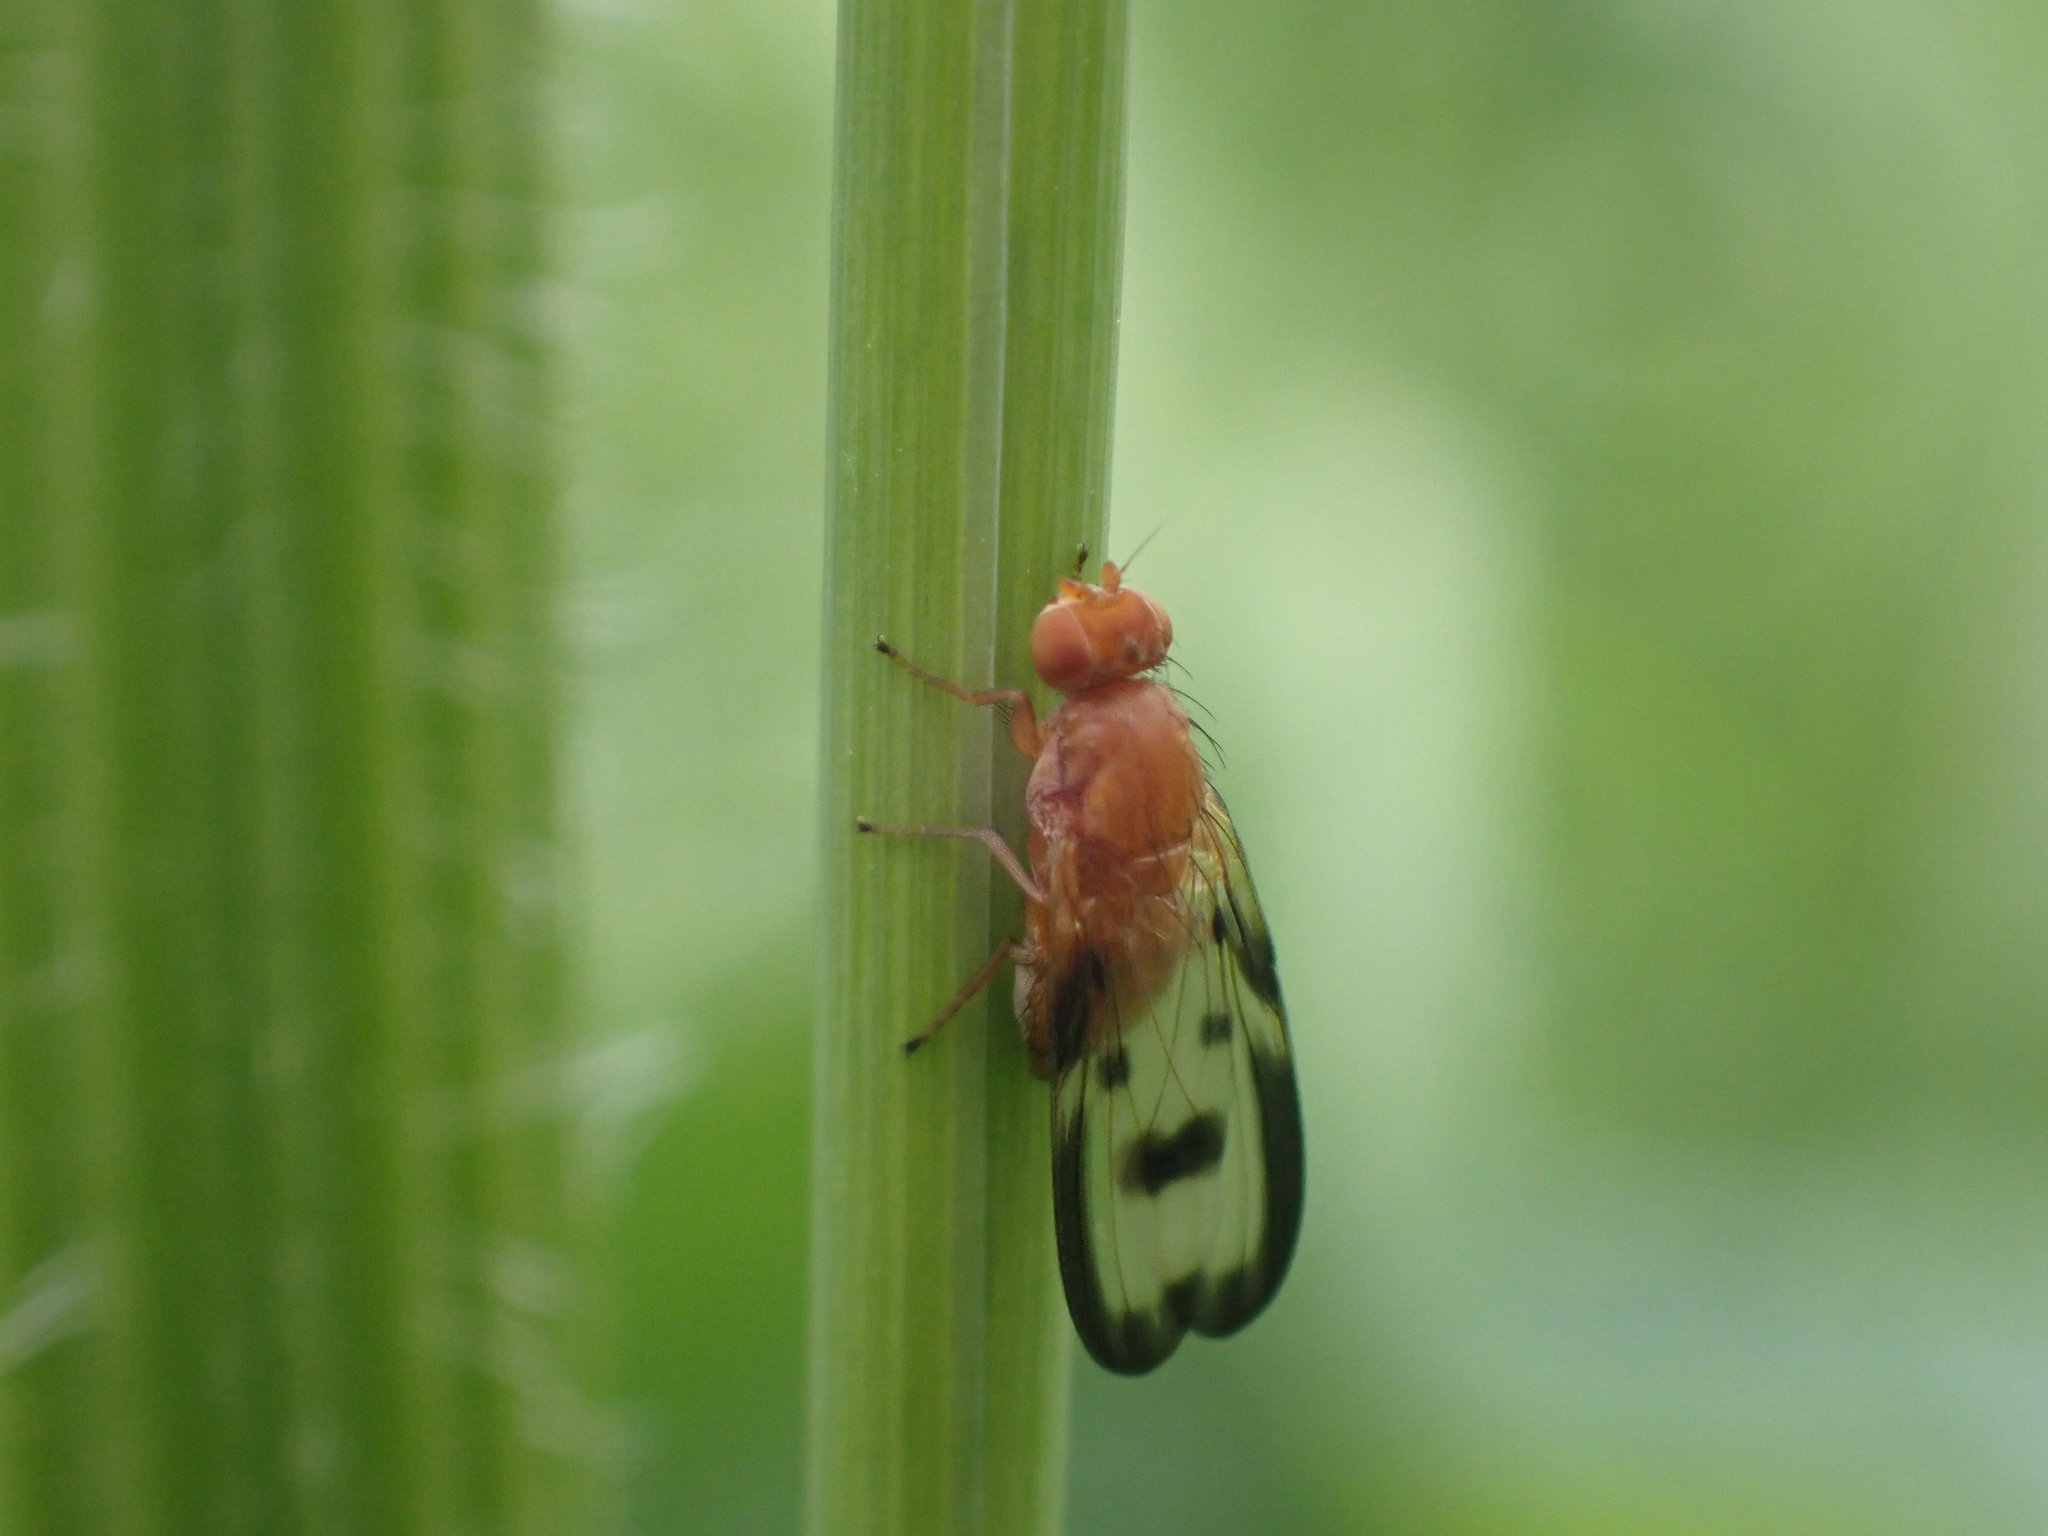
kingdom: Animalia
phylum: Arthropoda
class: Insecta
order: Diptera
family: Pallopteridae
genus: Toxonevra
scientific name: Toxonevra jucunda
